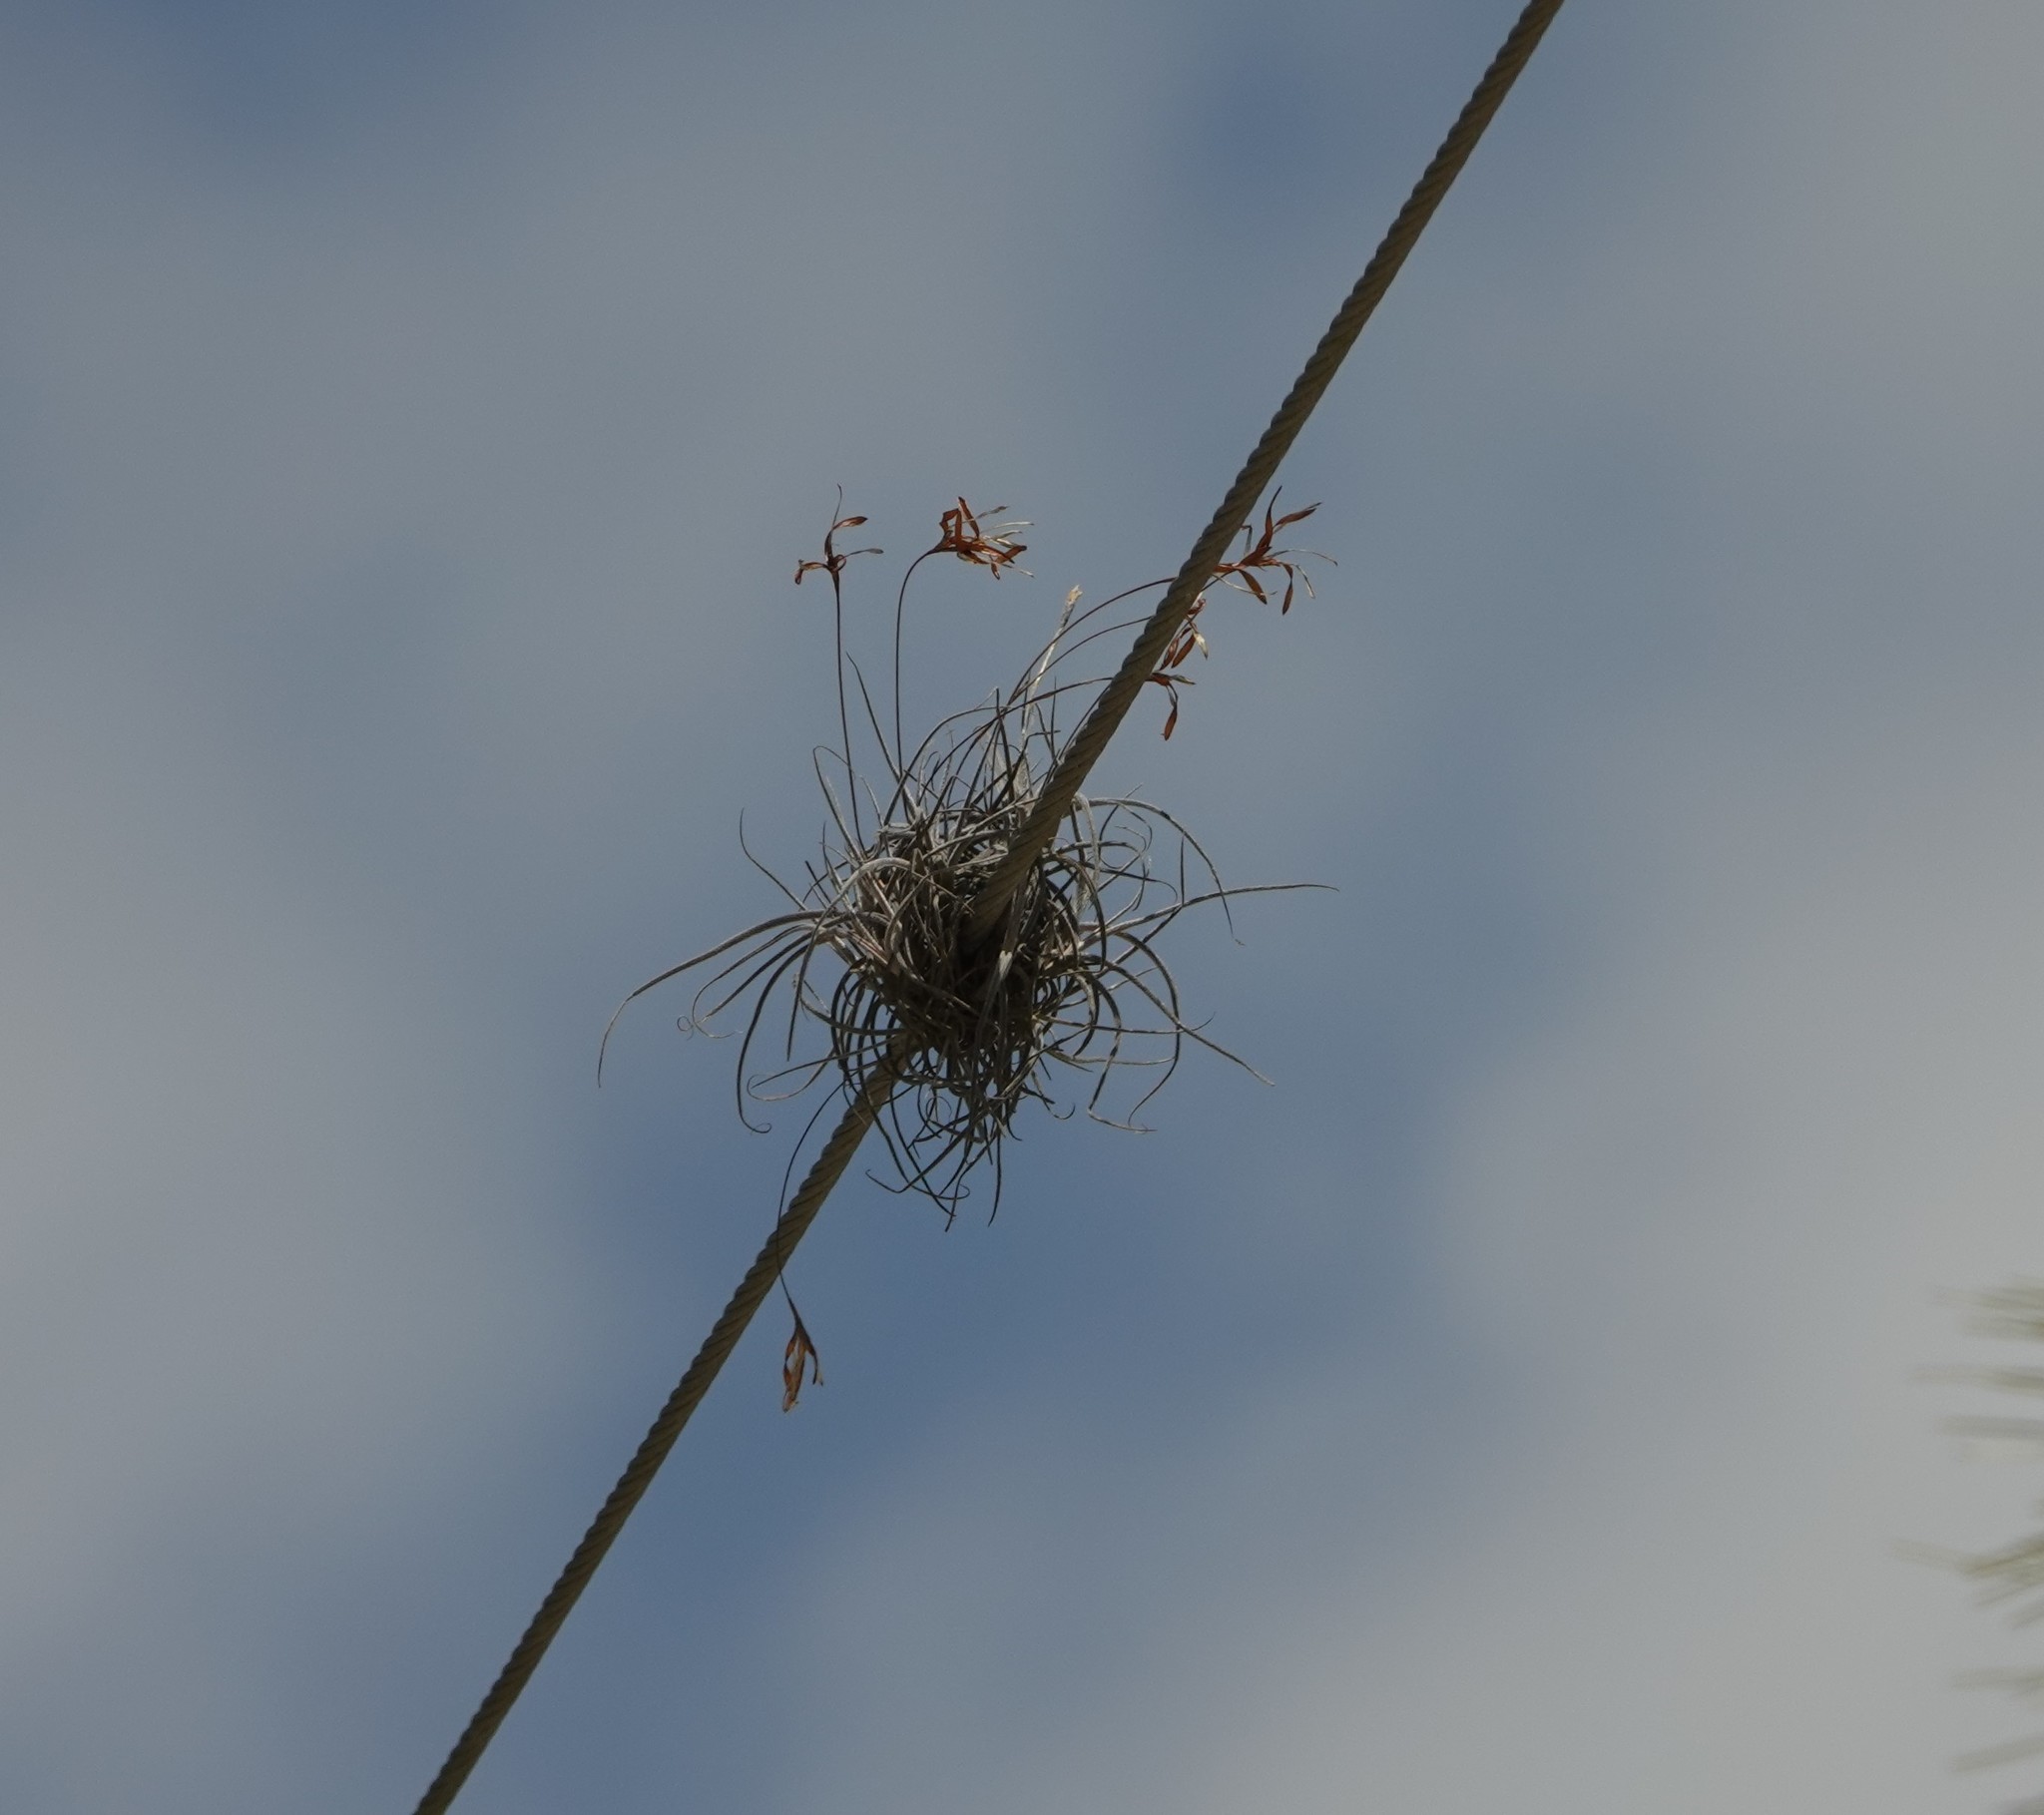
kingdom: Plantae
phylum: Tracheophyta
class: Liliopsida
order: Poales
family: Bromeliaceae
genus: Tillandsia
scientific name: Tillandsia recurvata
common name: Small ballmoss
